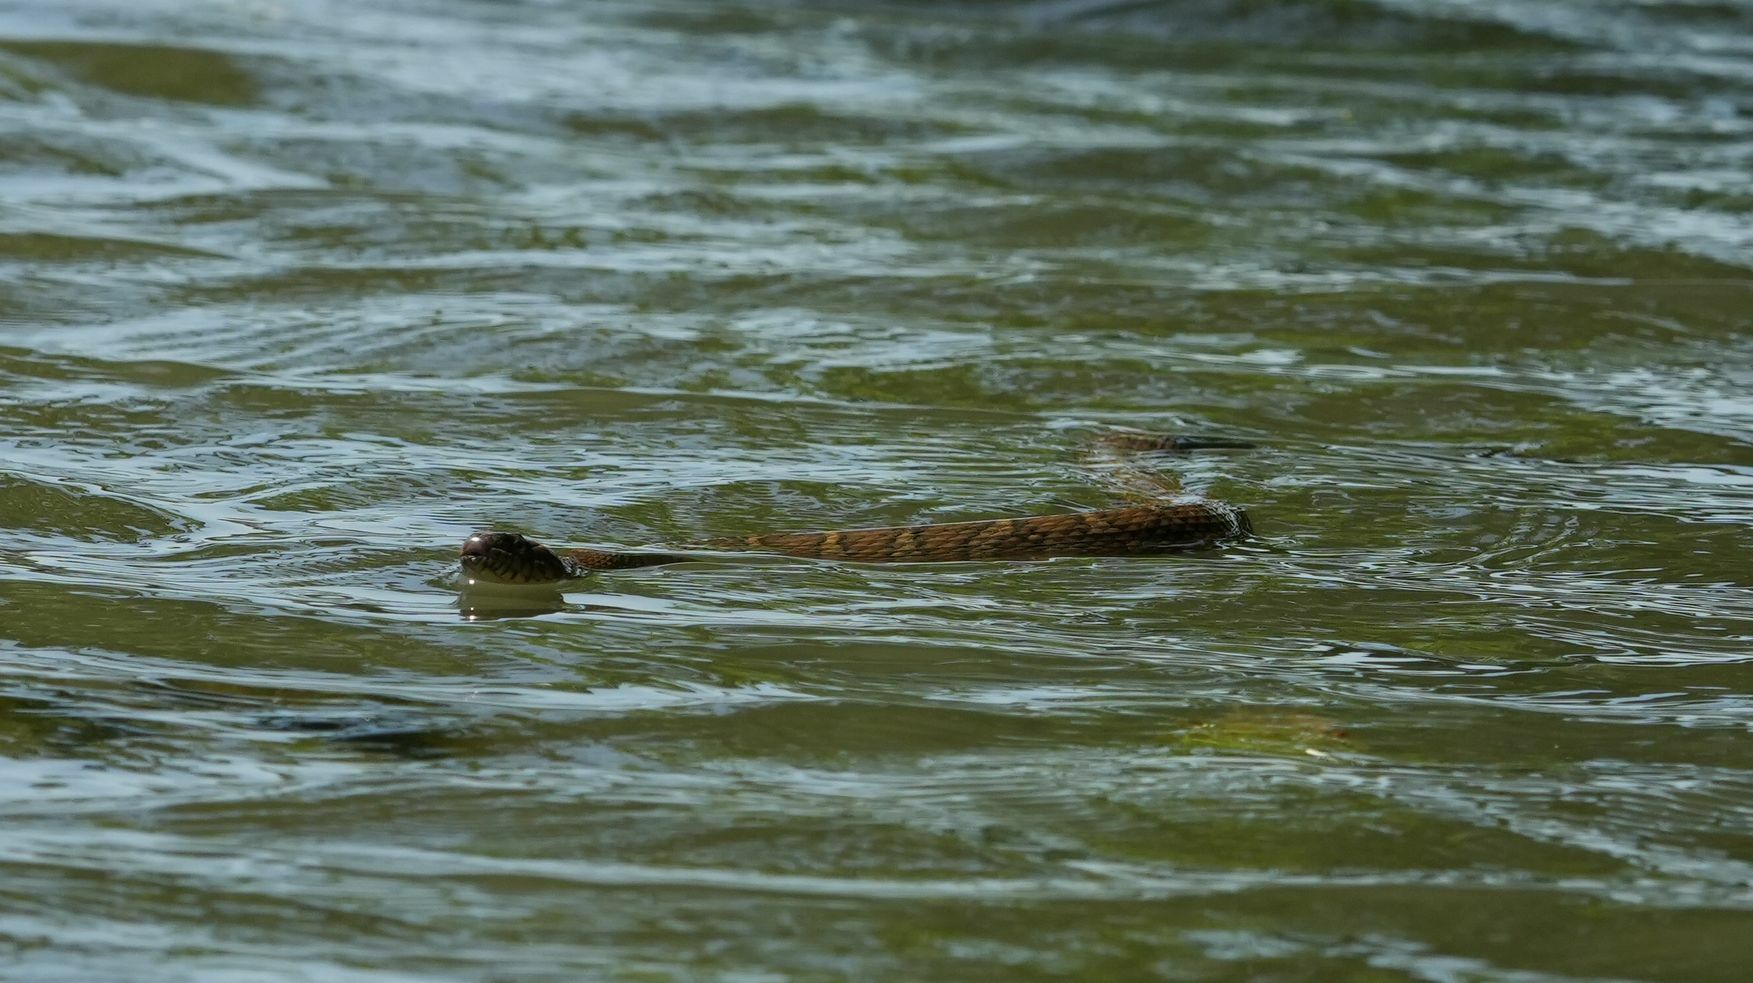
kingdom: Animalia
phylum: Chordata
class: Squamata
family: Colubridae
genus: Nerodia
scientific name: Nerodia sipedon
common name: Northern water snake
